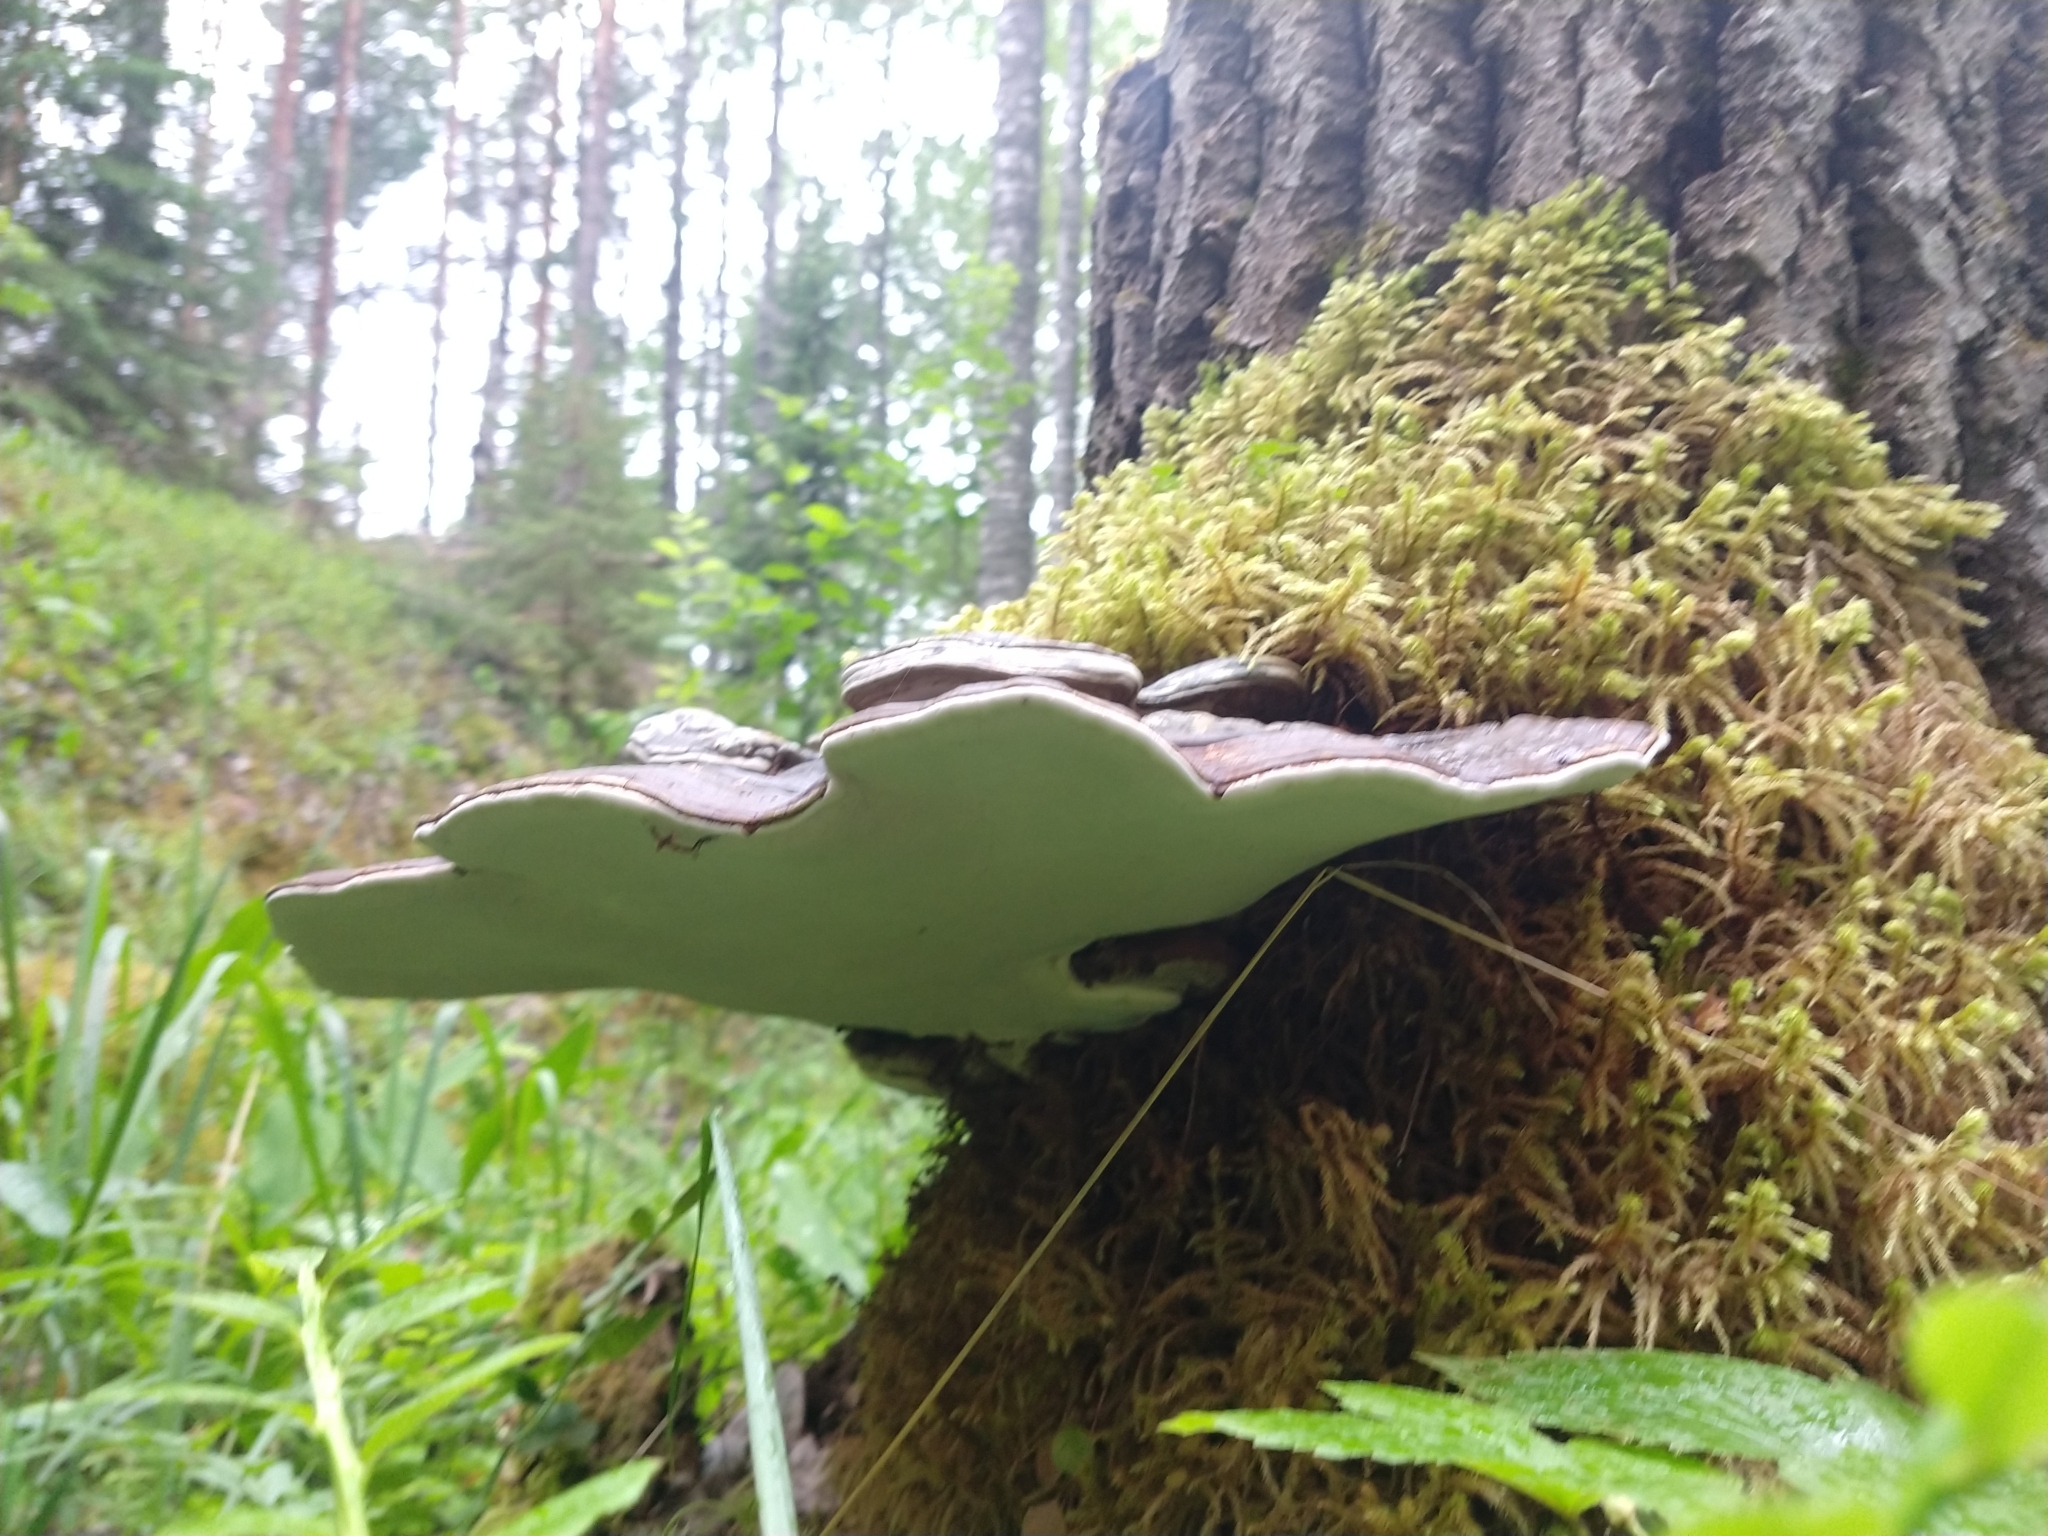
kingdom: Fungi
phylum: Basidiomycota
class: Agaricomycetes
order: Polyporales
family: Polyporaceae
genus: Ganoderma
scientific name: Ganoderma applanatum
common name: Artist's bracket
